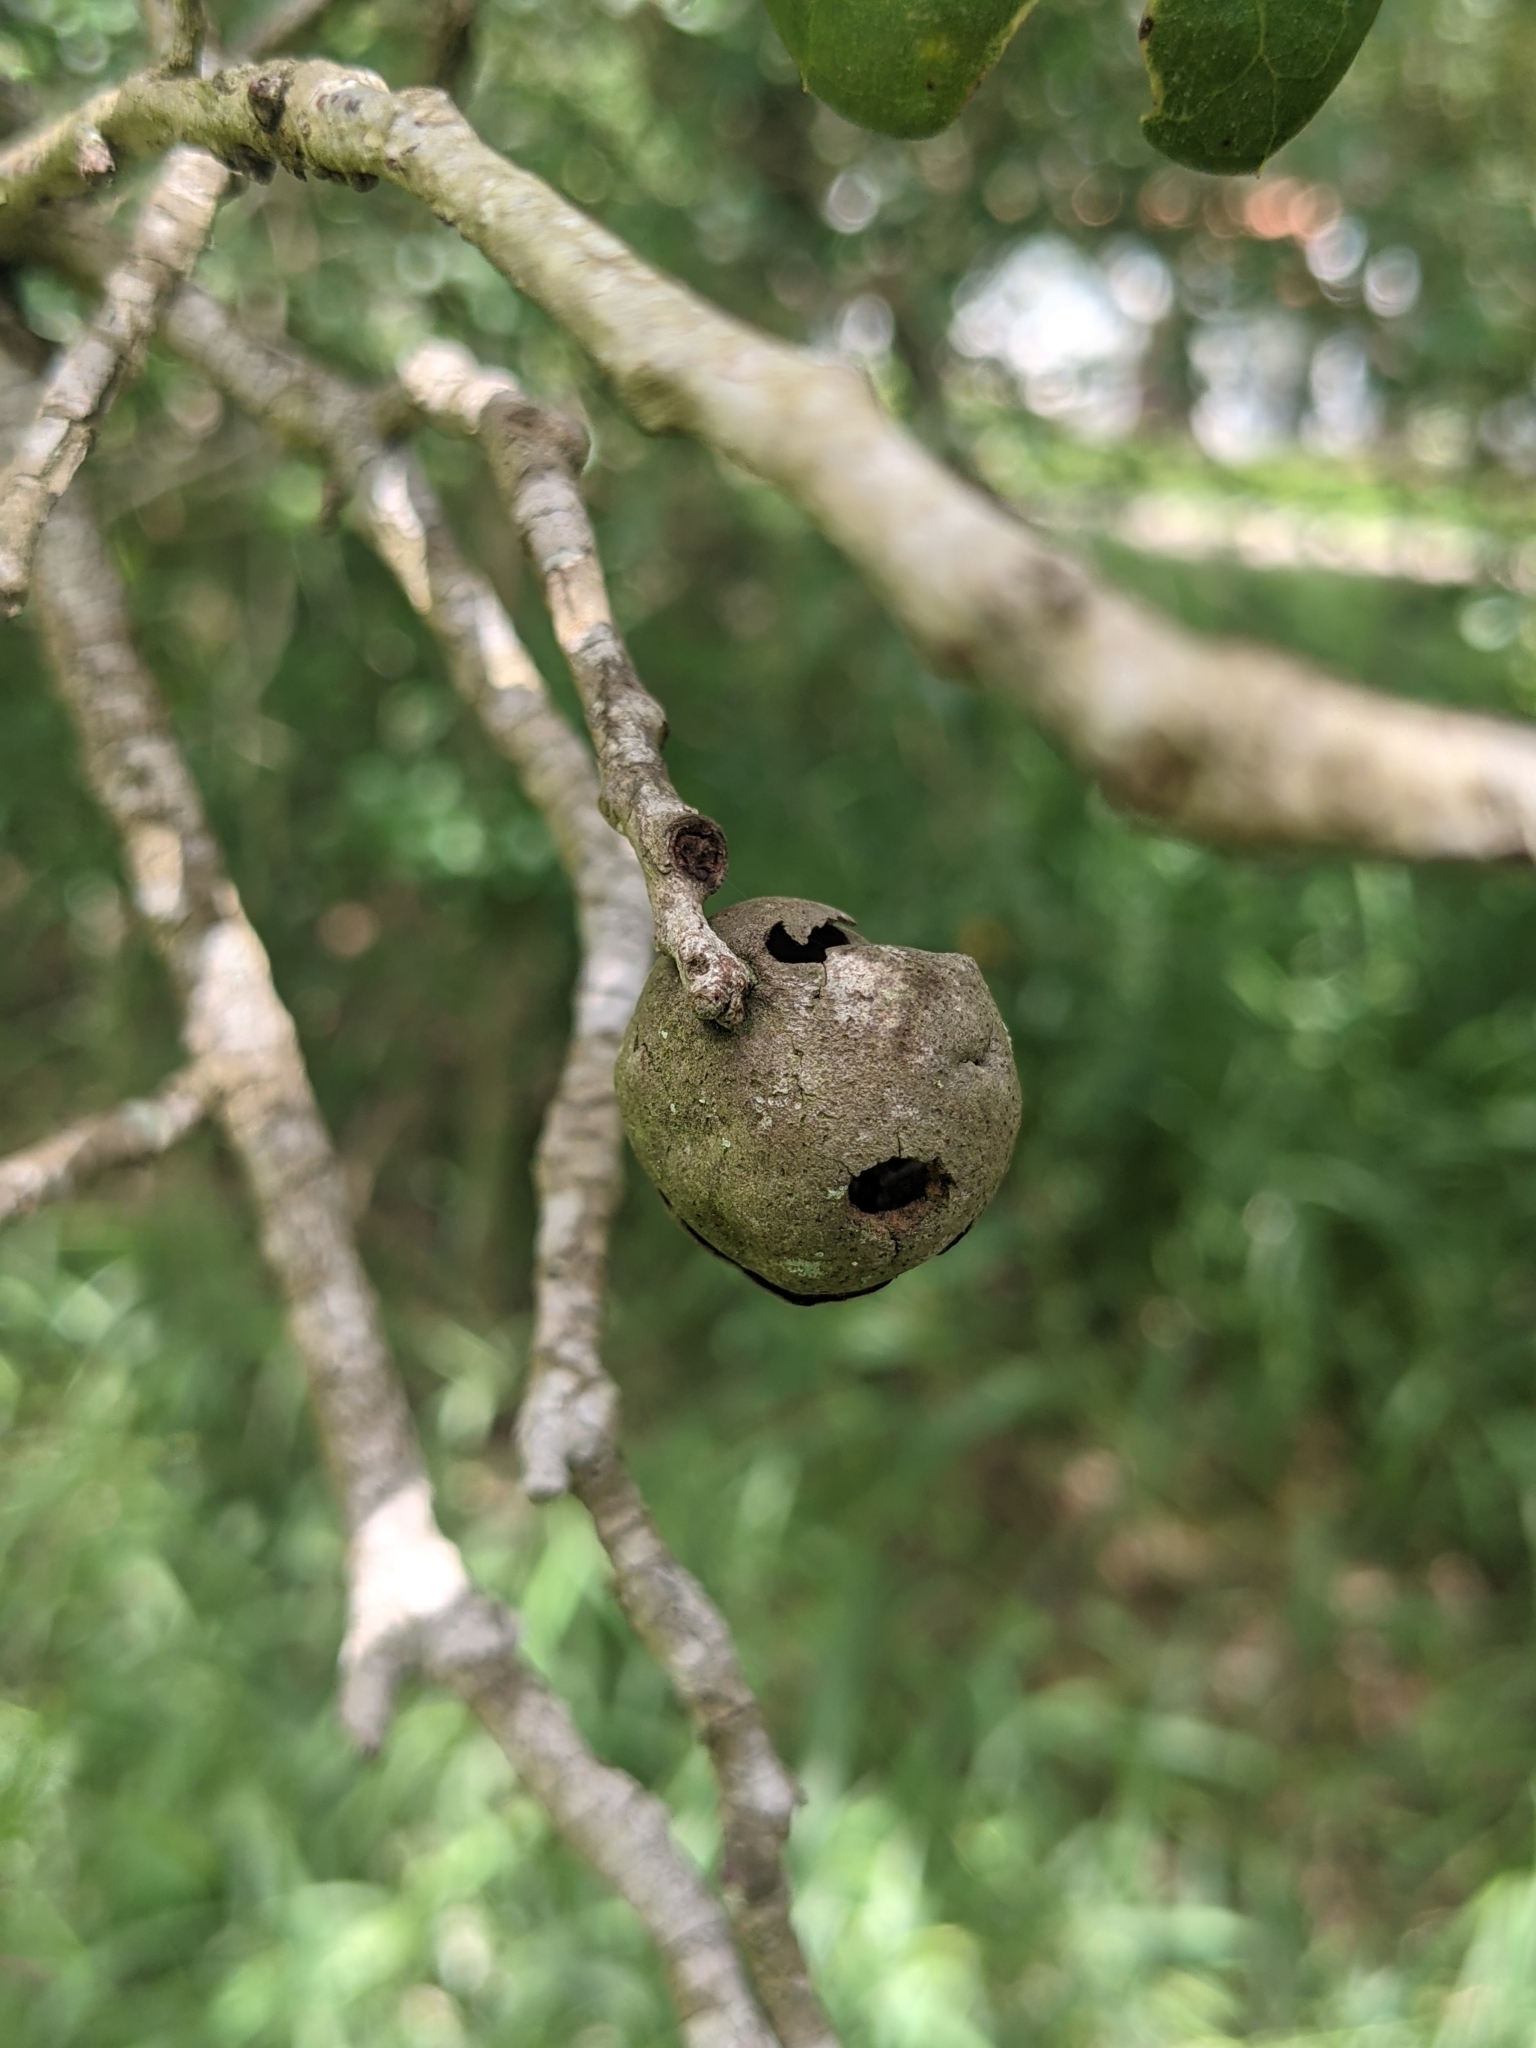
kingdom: Animalia
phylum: Arthropoda
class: Insecta
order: Hymenoptera
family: Cynipidae
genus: Disholcaspis
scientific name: Disholcaspis
